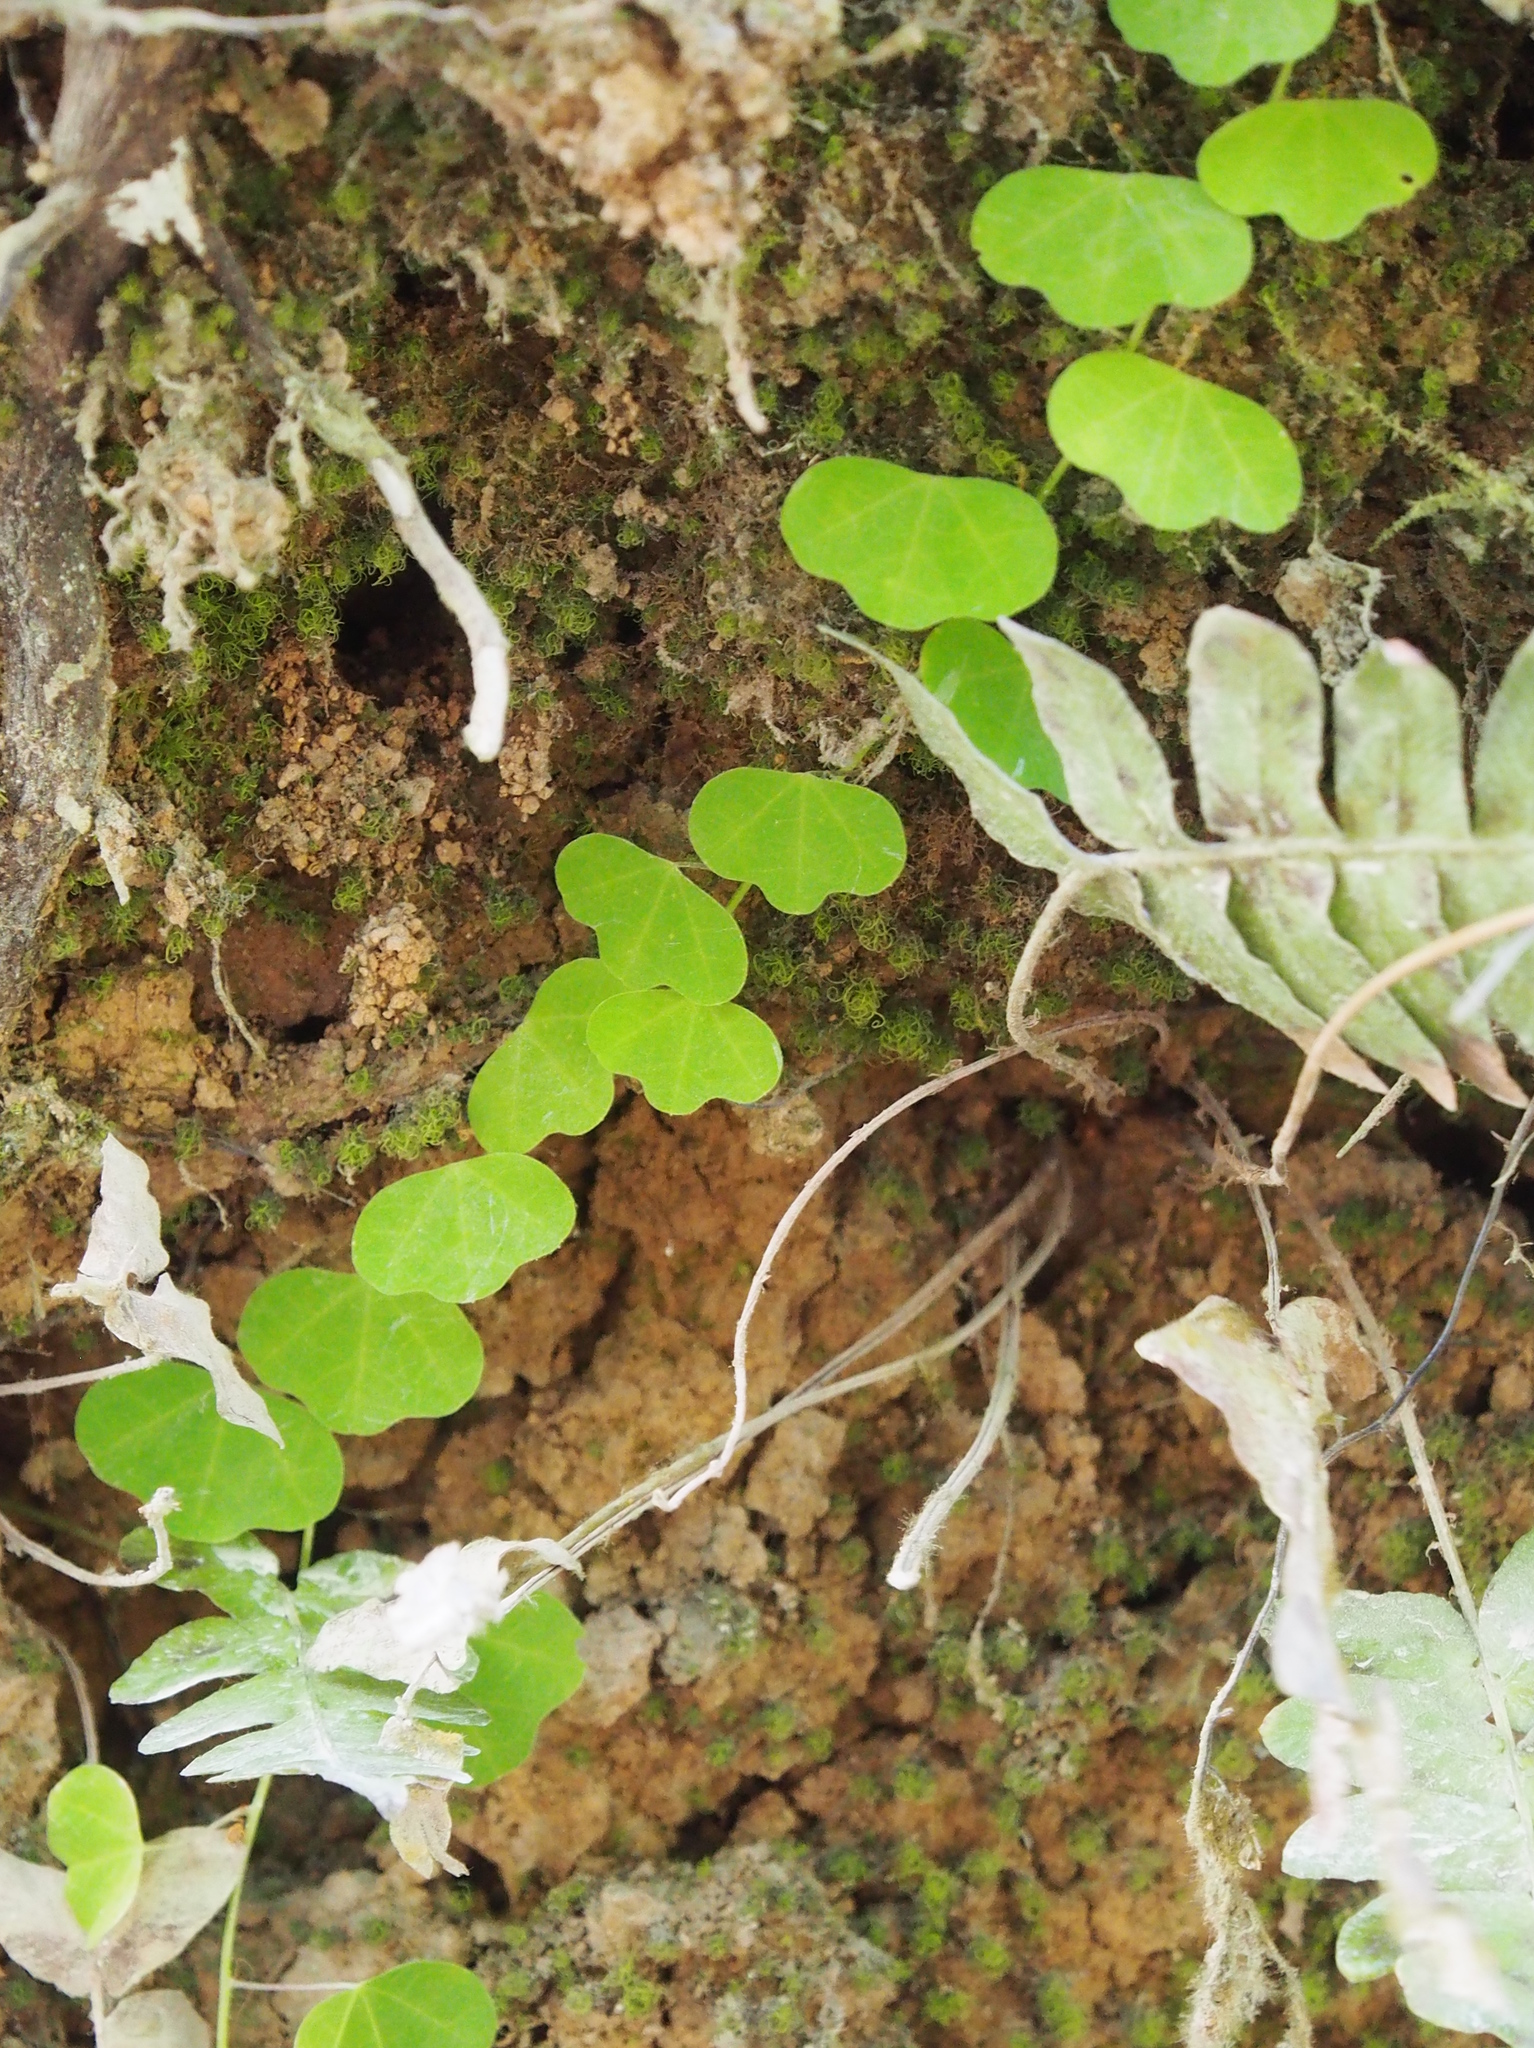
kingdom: Plantae
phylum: Tracheophyta
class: Magnoliopsida
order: Malpighiales
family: Passifloraceae
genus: Passiflora
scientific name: Passiflora filipes
